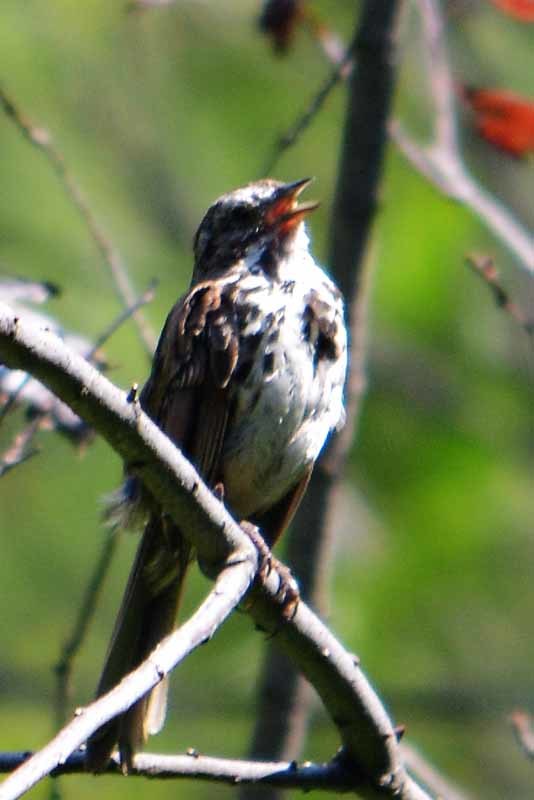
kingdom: Animalia
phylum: Chordata
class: Aves
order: Passeriformes
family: Passerellidae
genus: Melospiza
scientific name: Melospiza melodia
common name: Song sparrow
